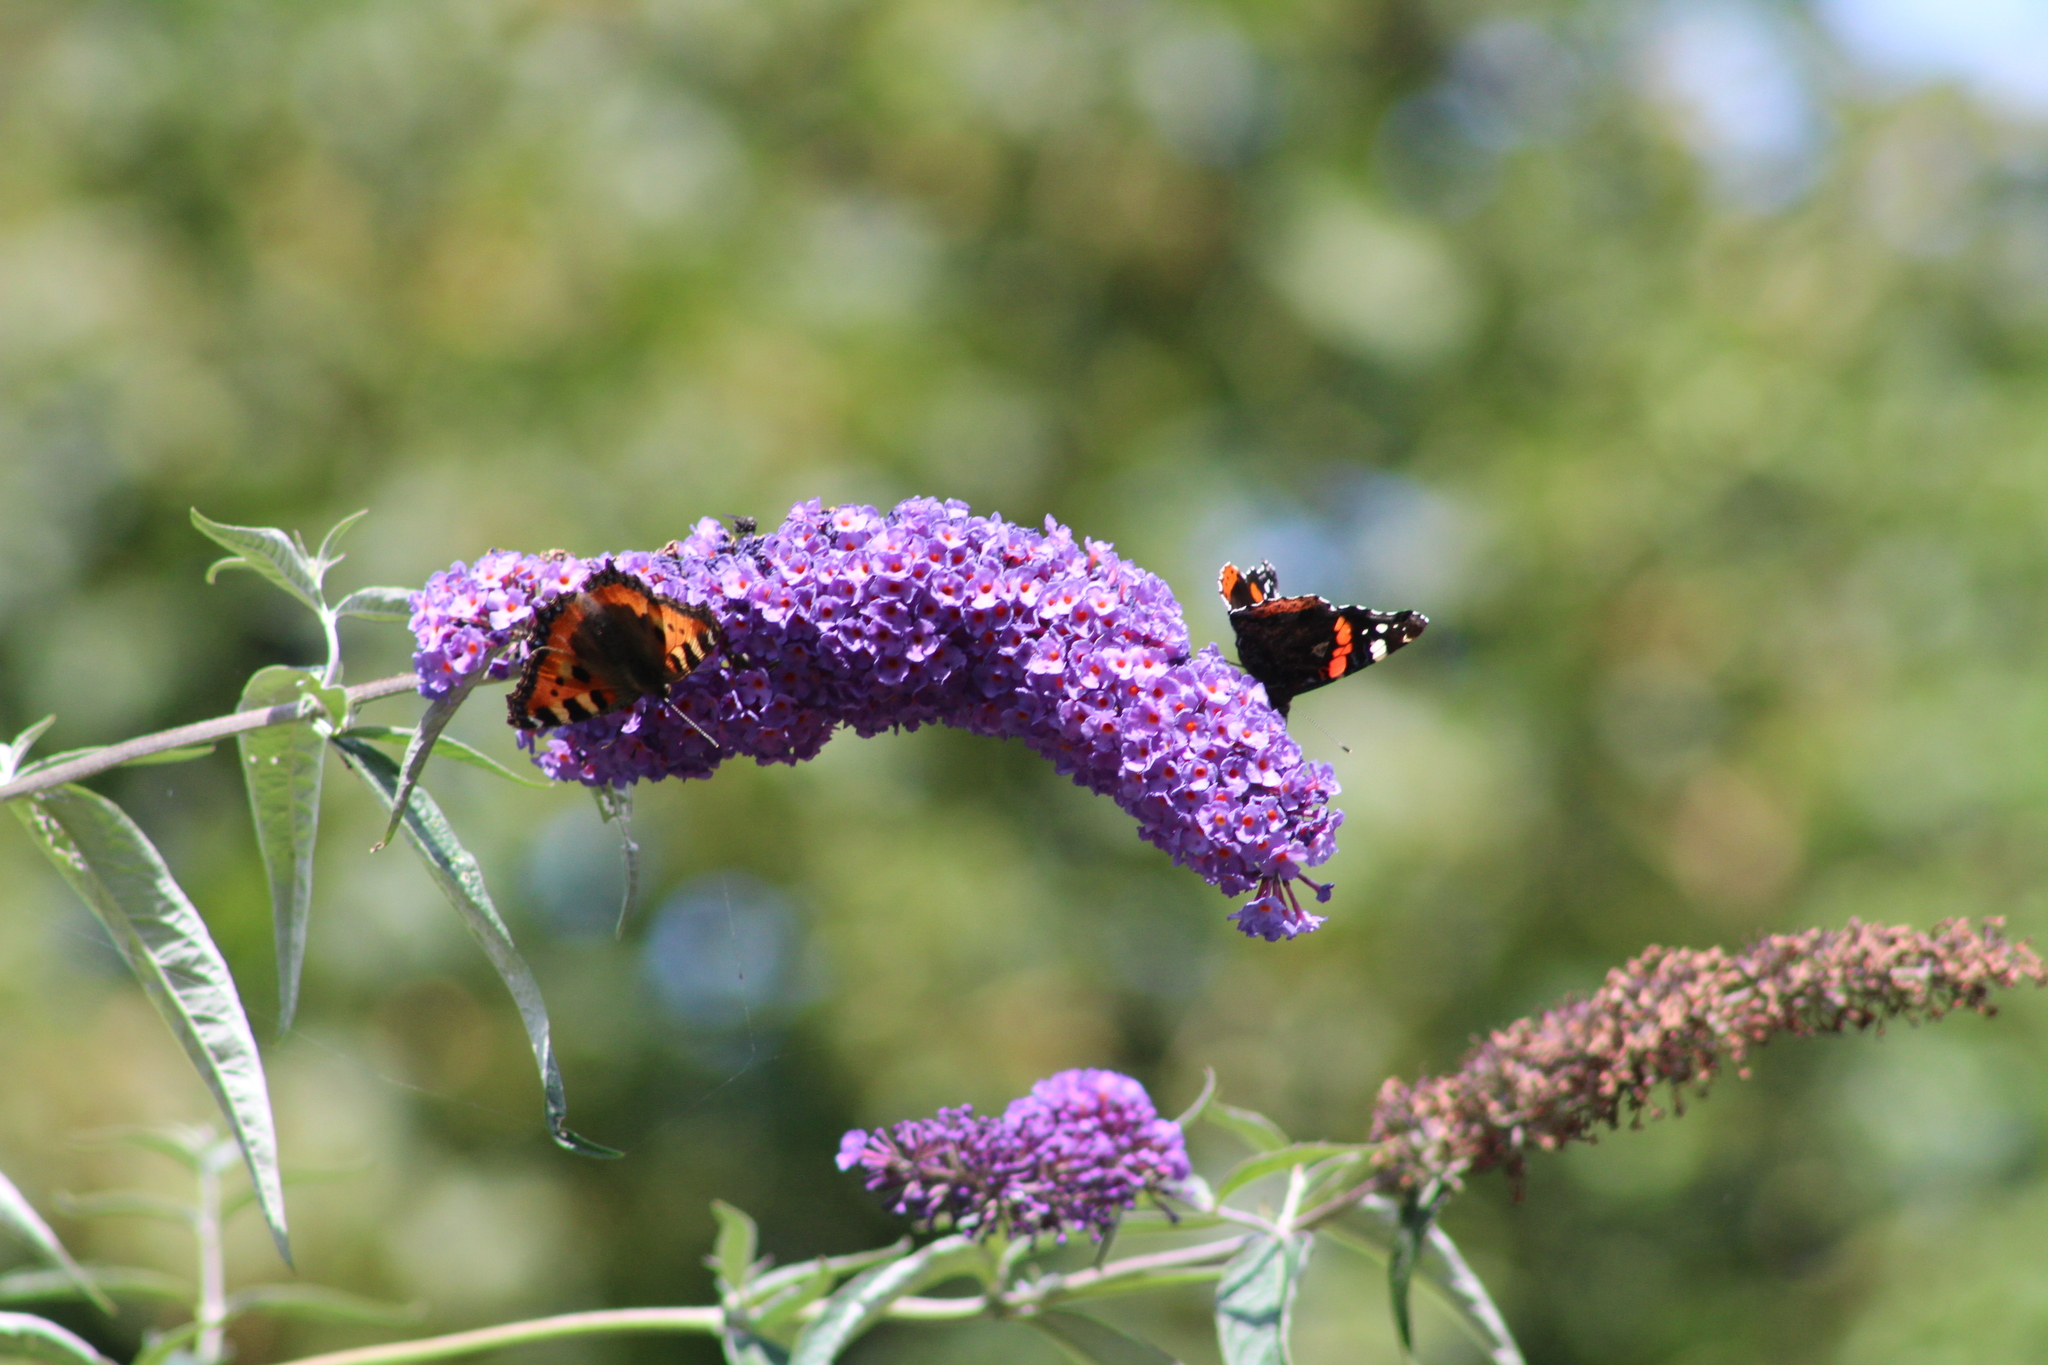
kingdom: Animalia
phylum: Arthropoda
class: Insecta
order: Lepidoptera
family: Nymphalidae
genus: Aglais
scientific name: Aglais urticae
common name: Small tortoiseshell
